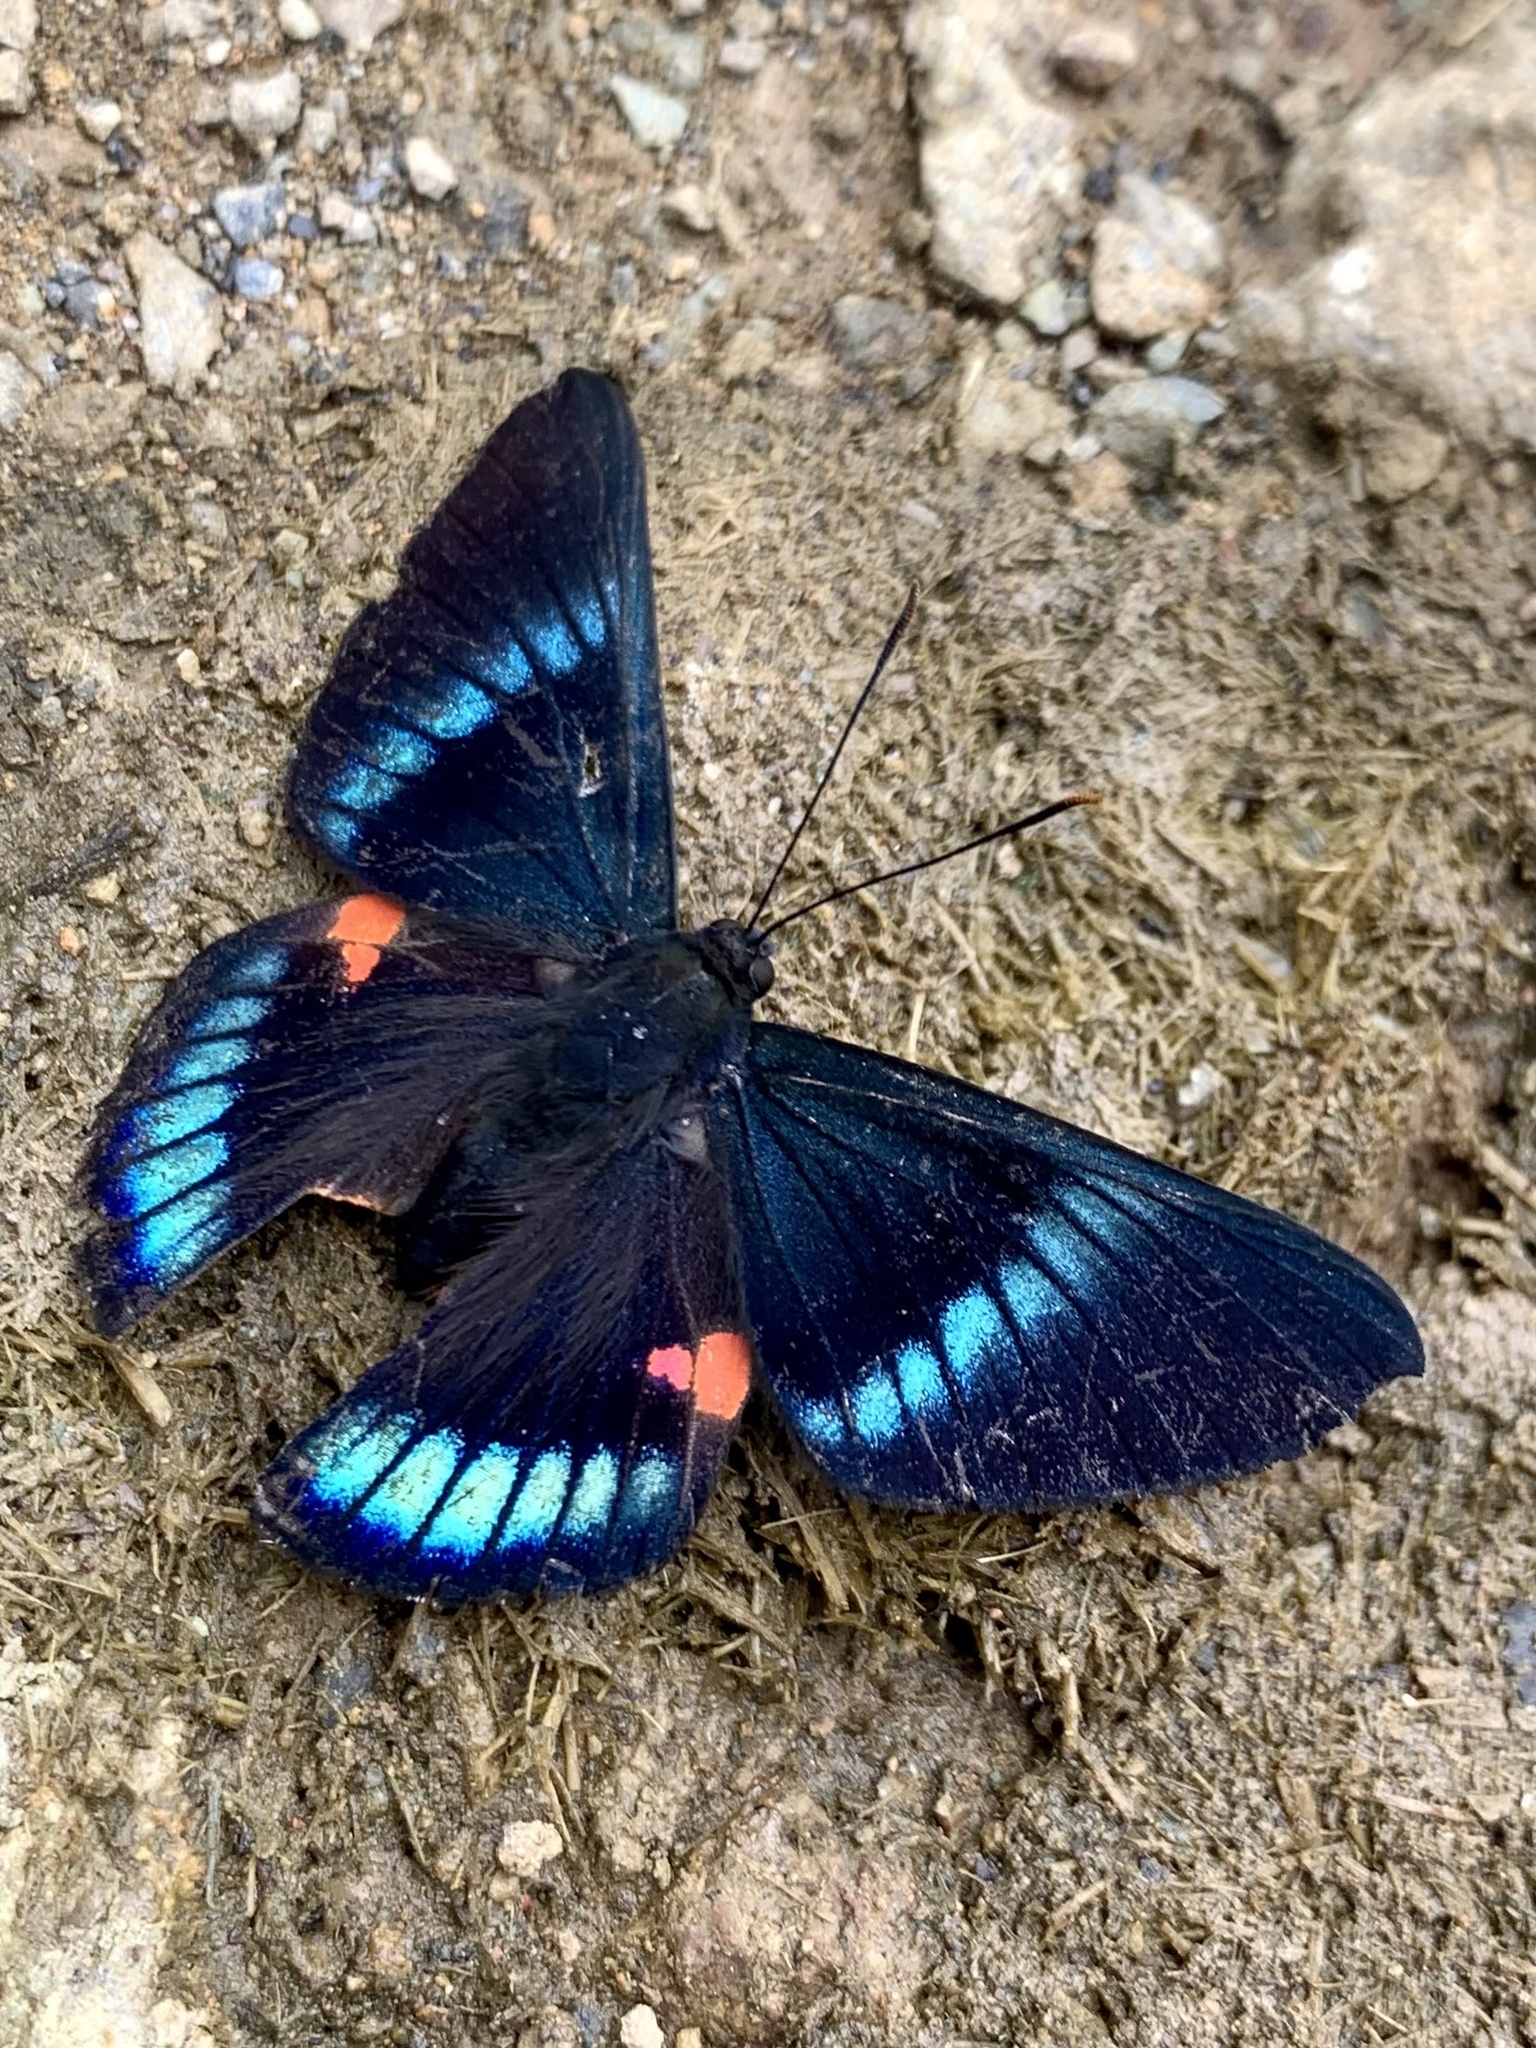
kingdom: Animalia
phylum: Arthropoda
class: Insecta
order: Lepidoptera
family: Lycaenidae
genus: Necyria
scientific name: Necyria bellona
